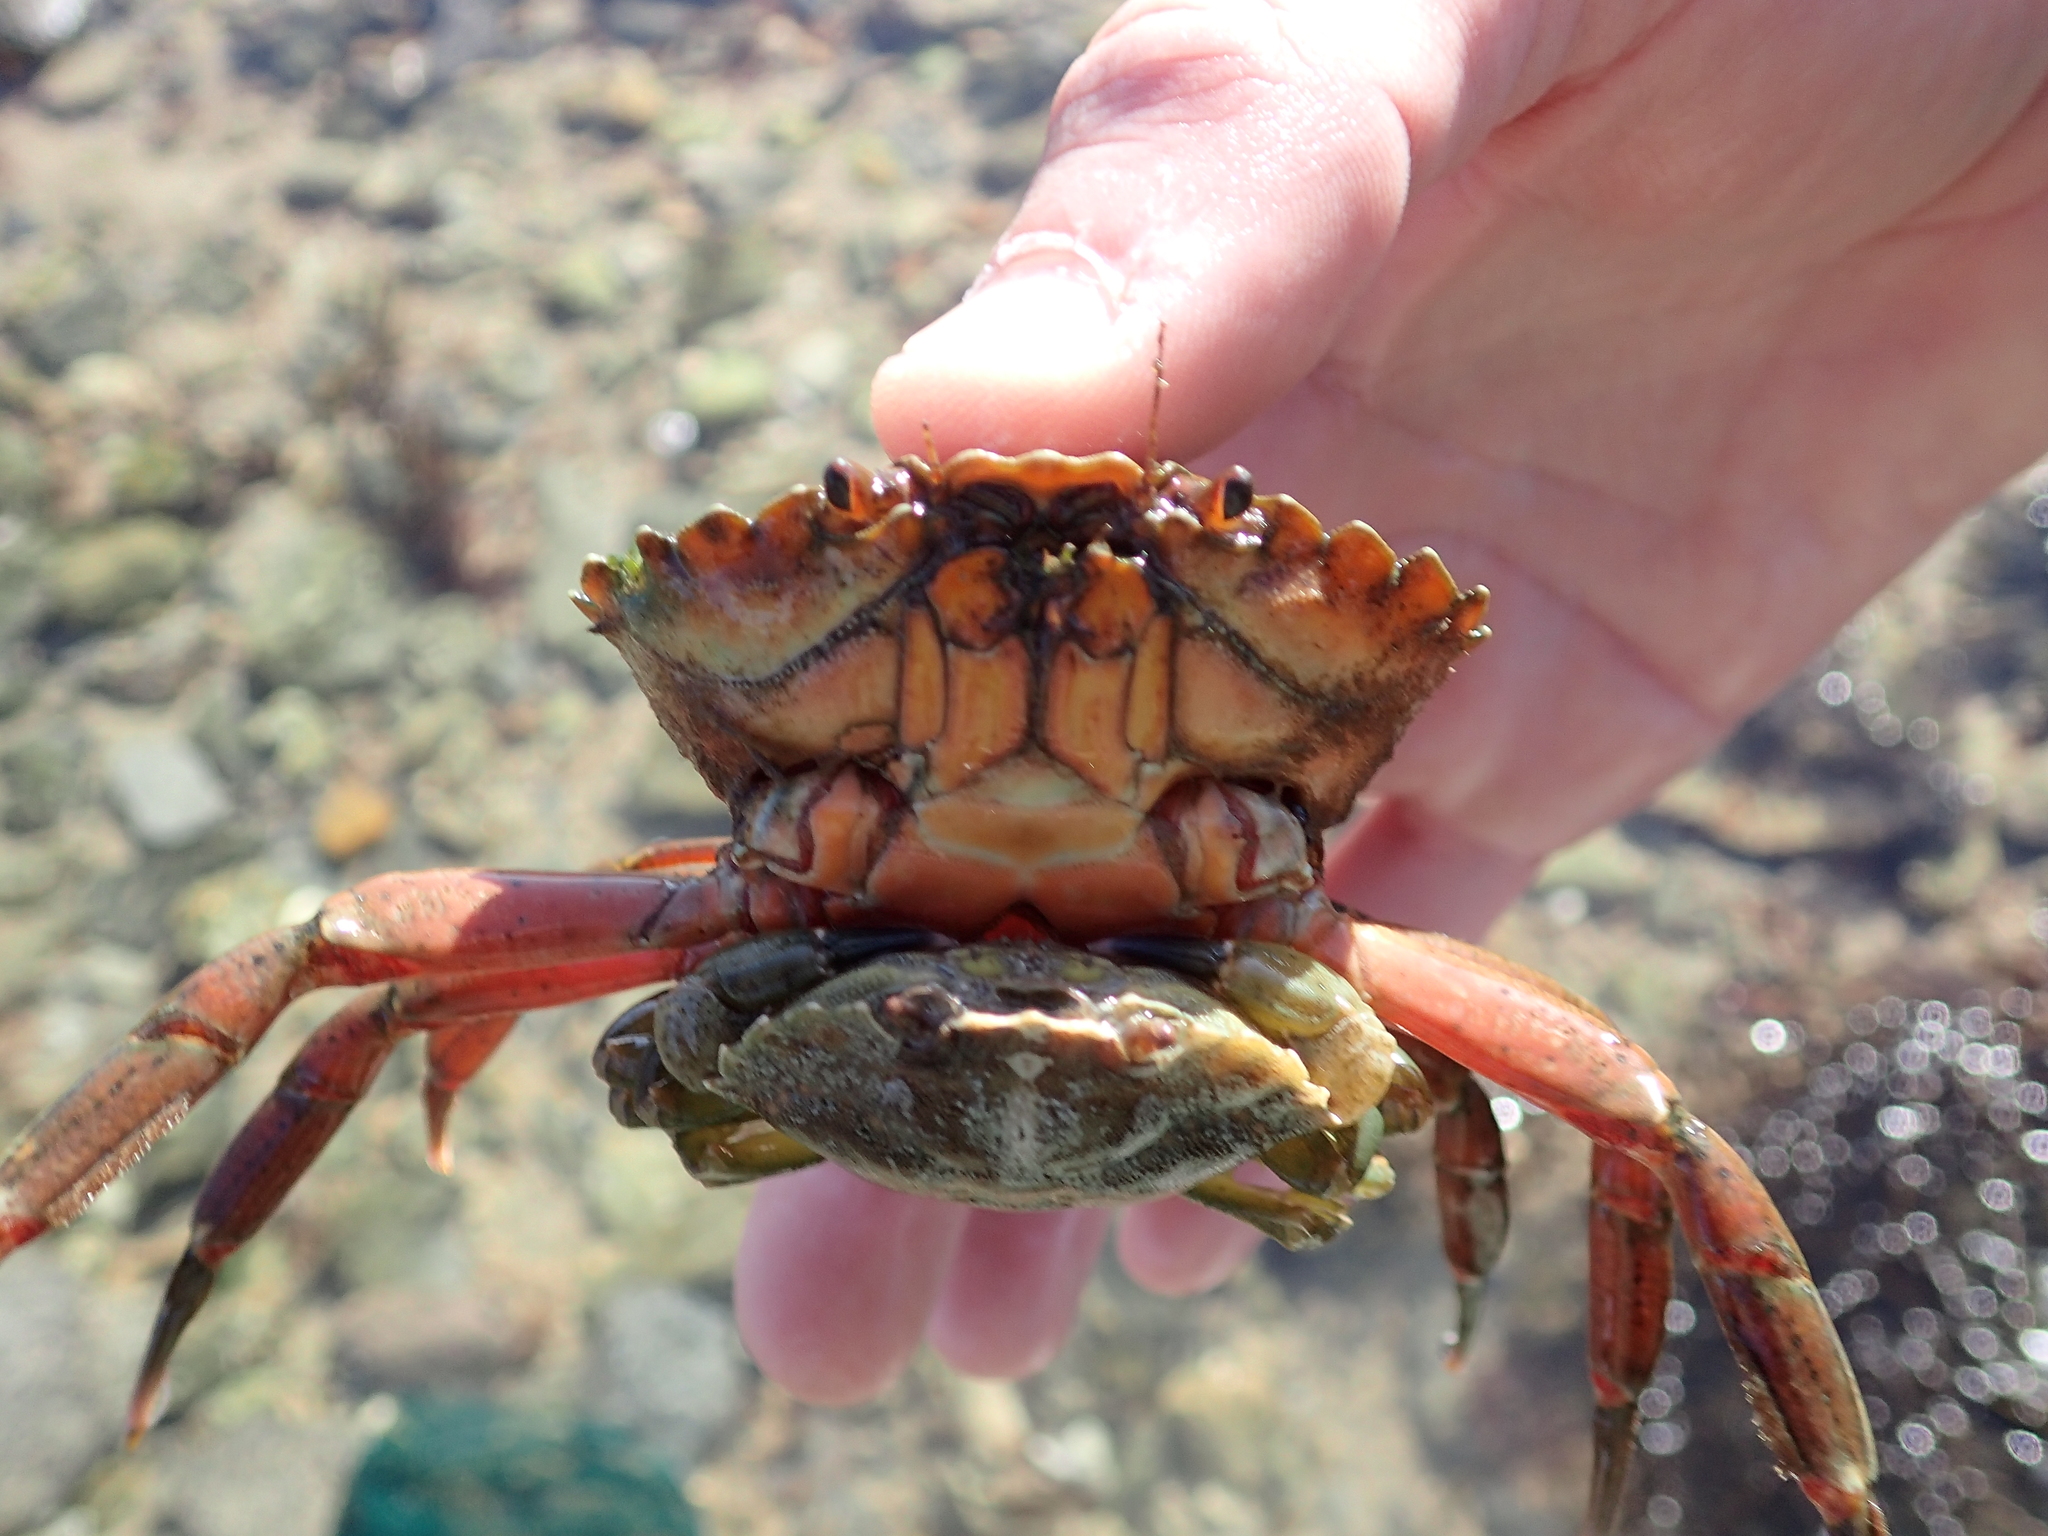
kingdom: Animalia
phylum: Arthropoda
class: Malacostraca
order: Decapoda
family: Carcinidae
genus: Carcinus
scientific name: Carcinus maenas
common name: European green crab
